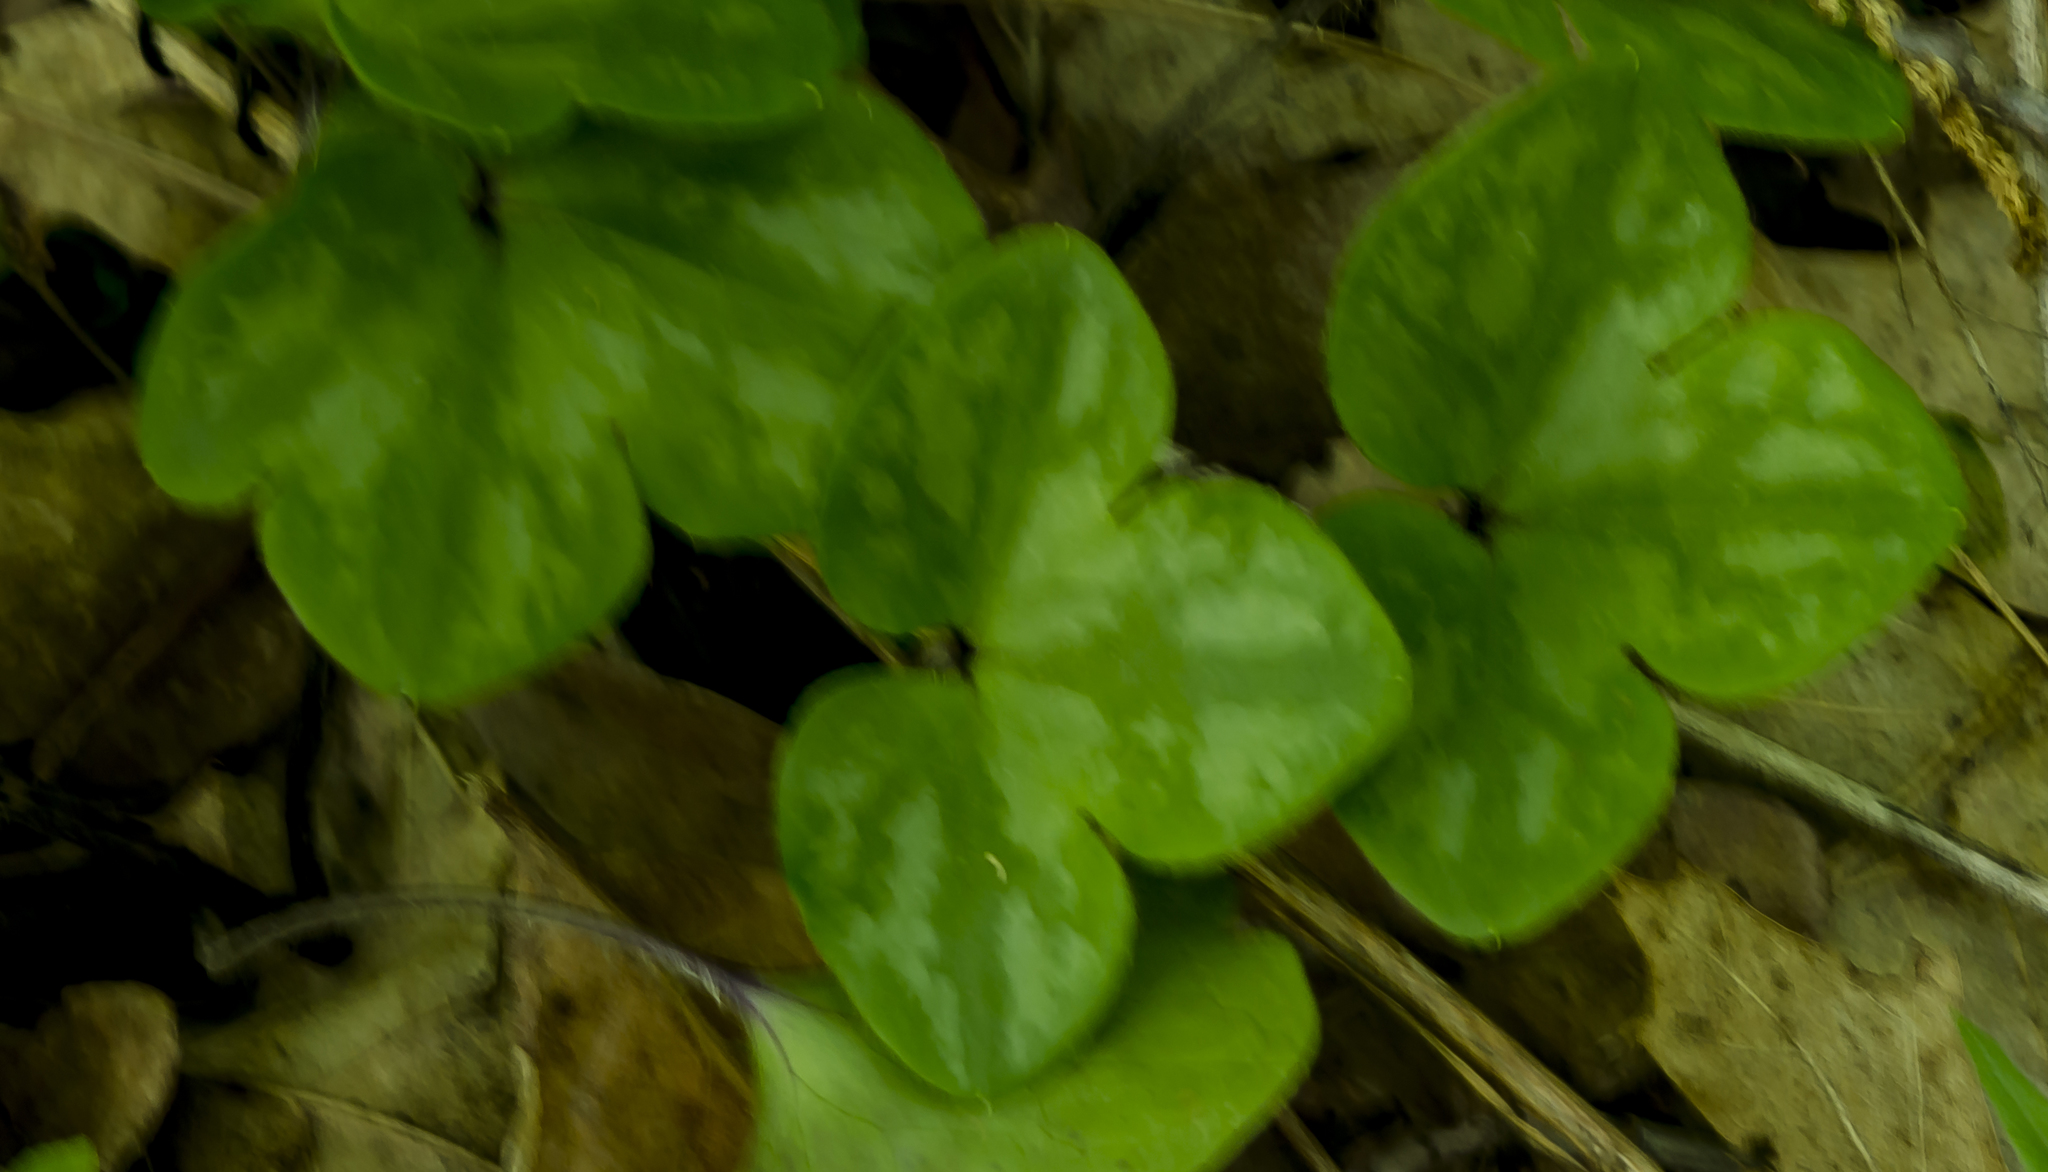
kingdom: Plantae
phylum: Tracheophyta
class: Magnoliopsida
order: Ranunculales
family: Ranunculaceae
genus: Hepatica
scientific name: Hepatica americana
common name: American hepatica
